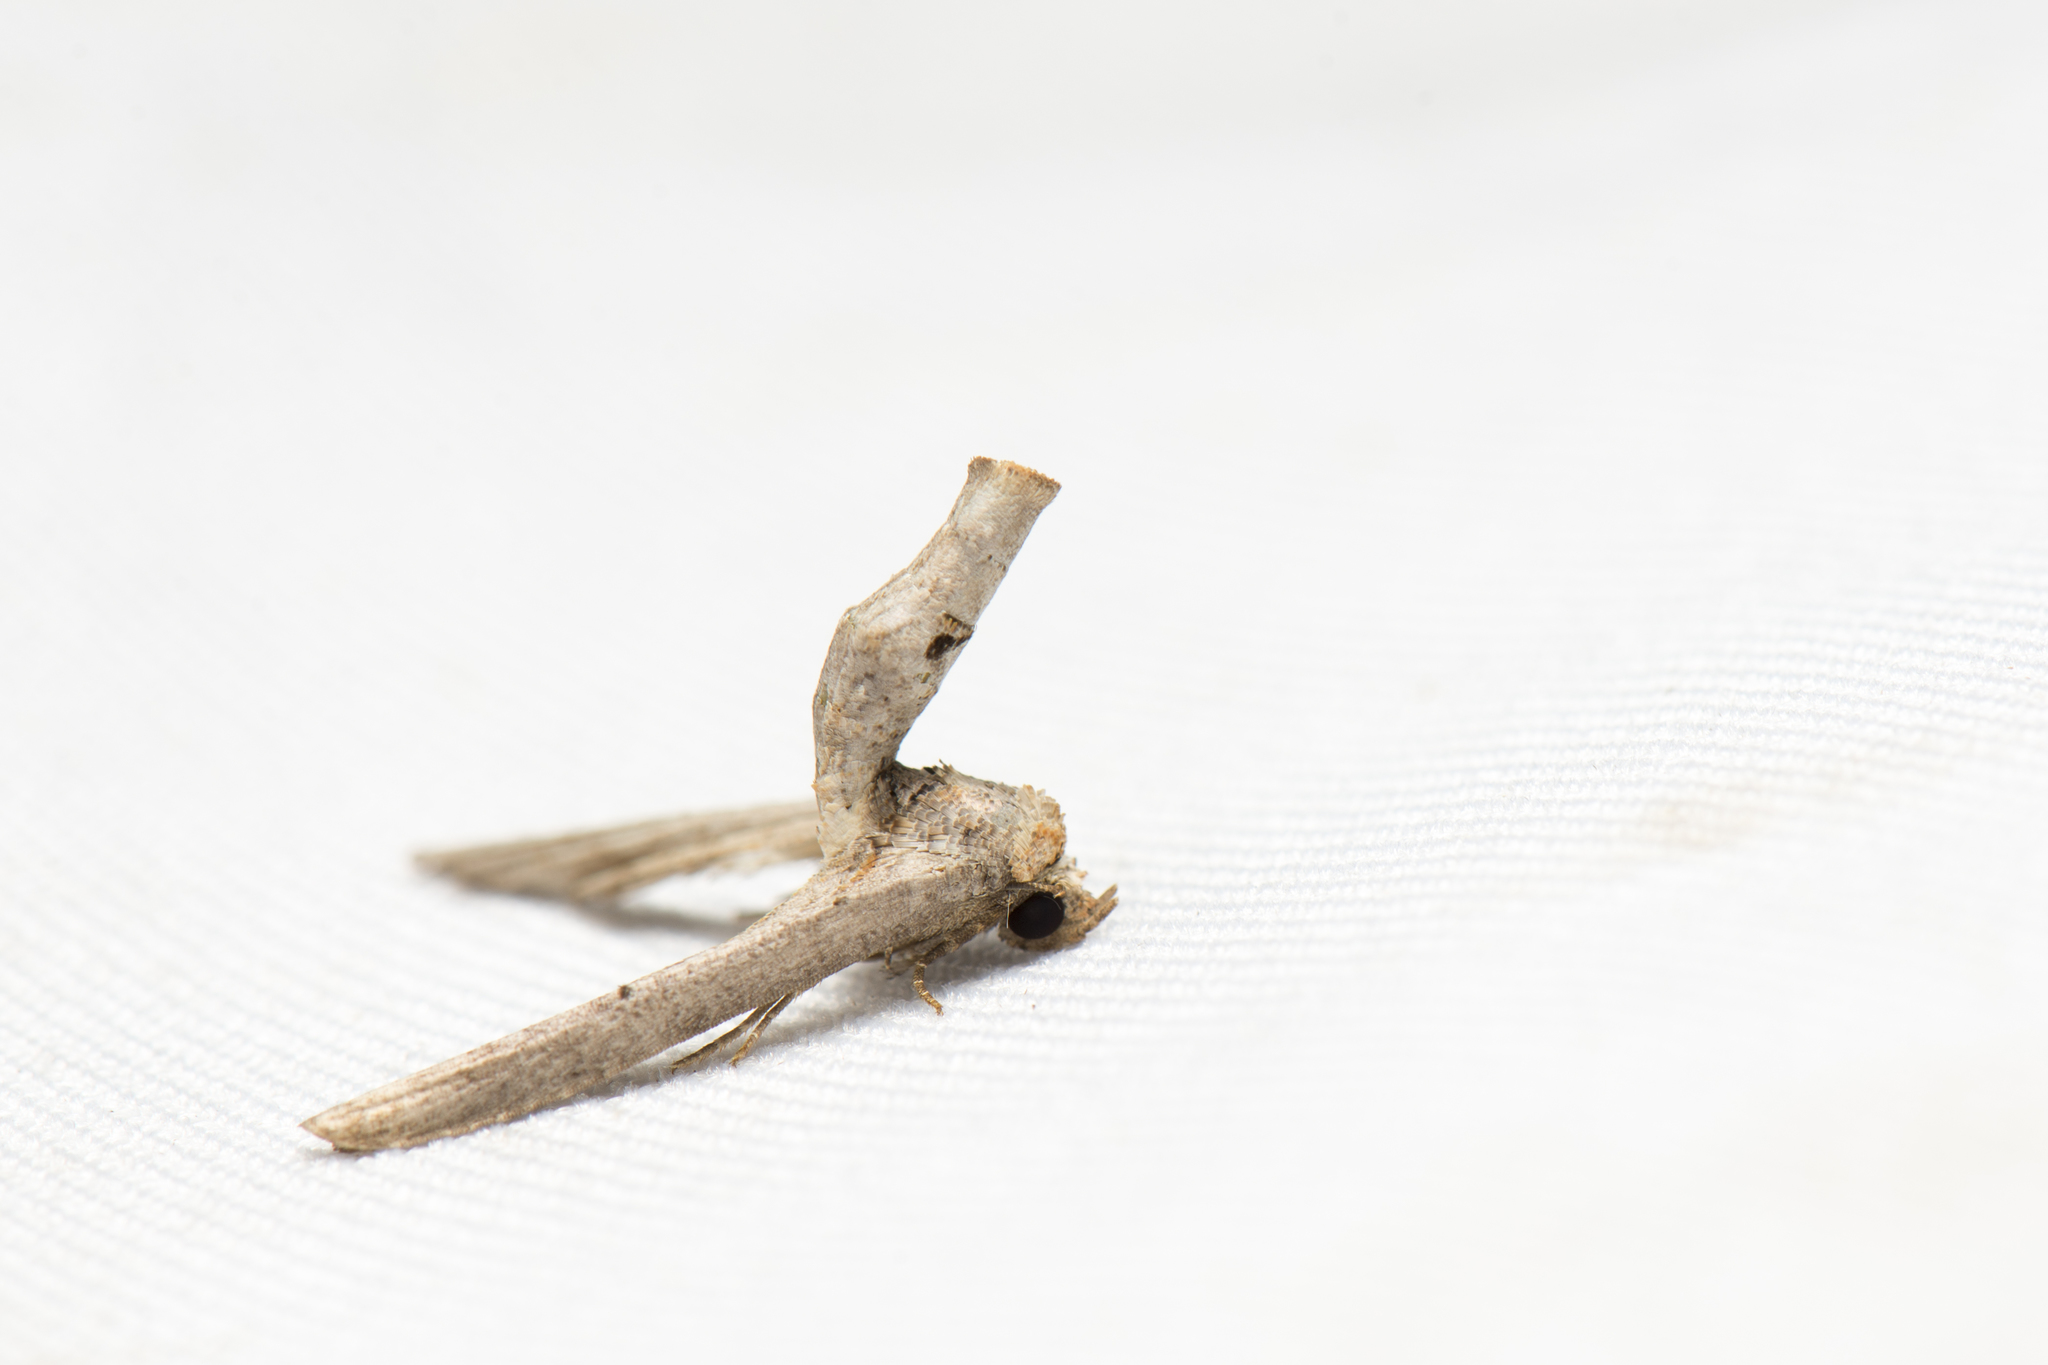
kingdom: Animalia
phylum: Arthropoda
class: Insecta
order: Lepidoptera
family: Euteliidae
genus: Anigraea
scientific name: Anigraea homochroa
